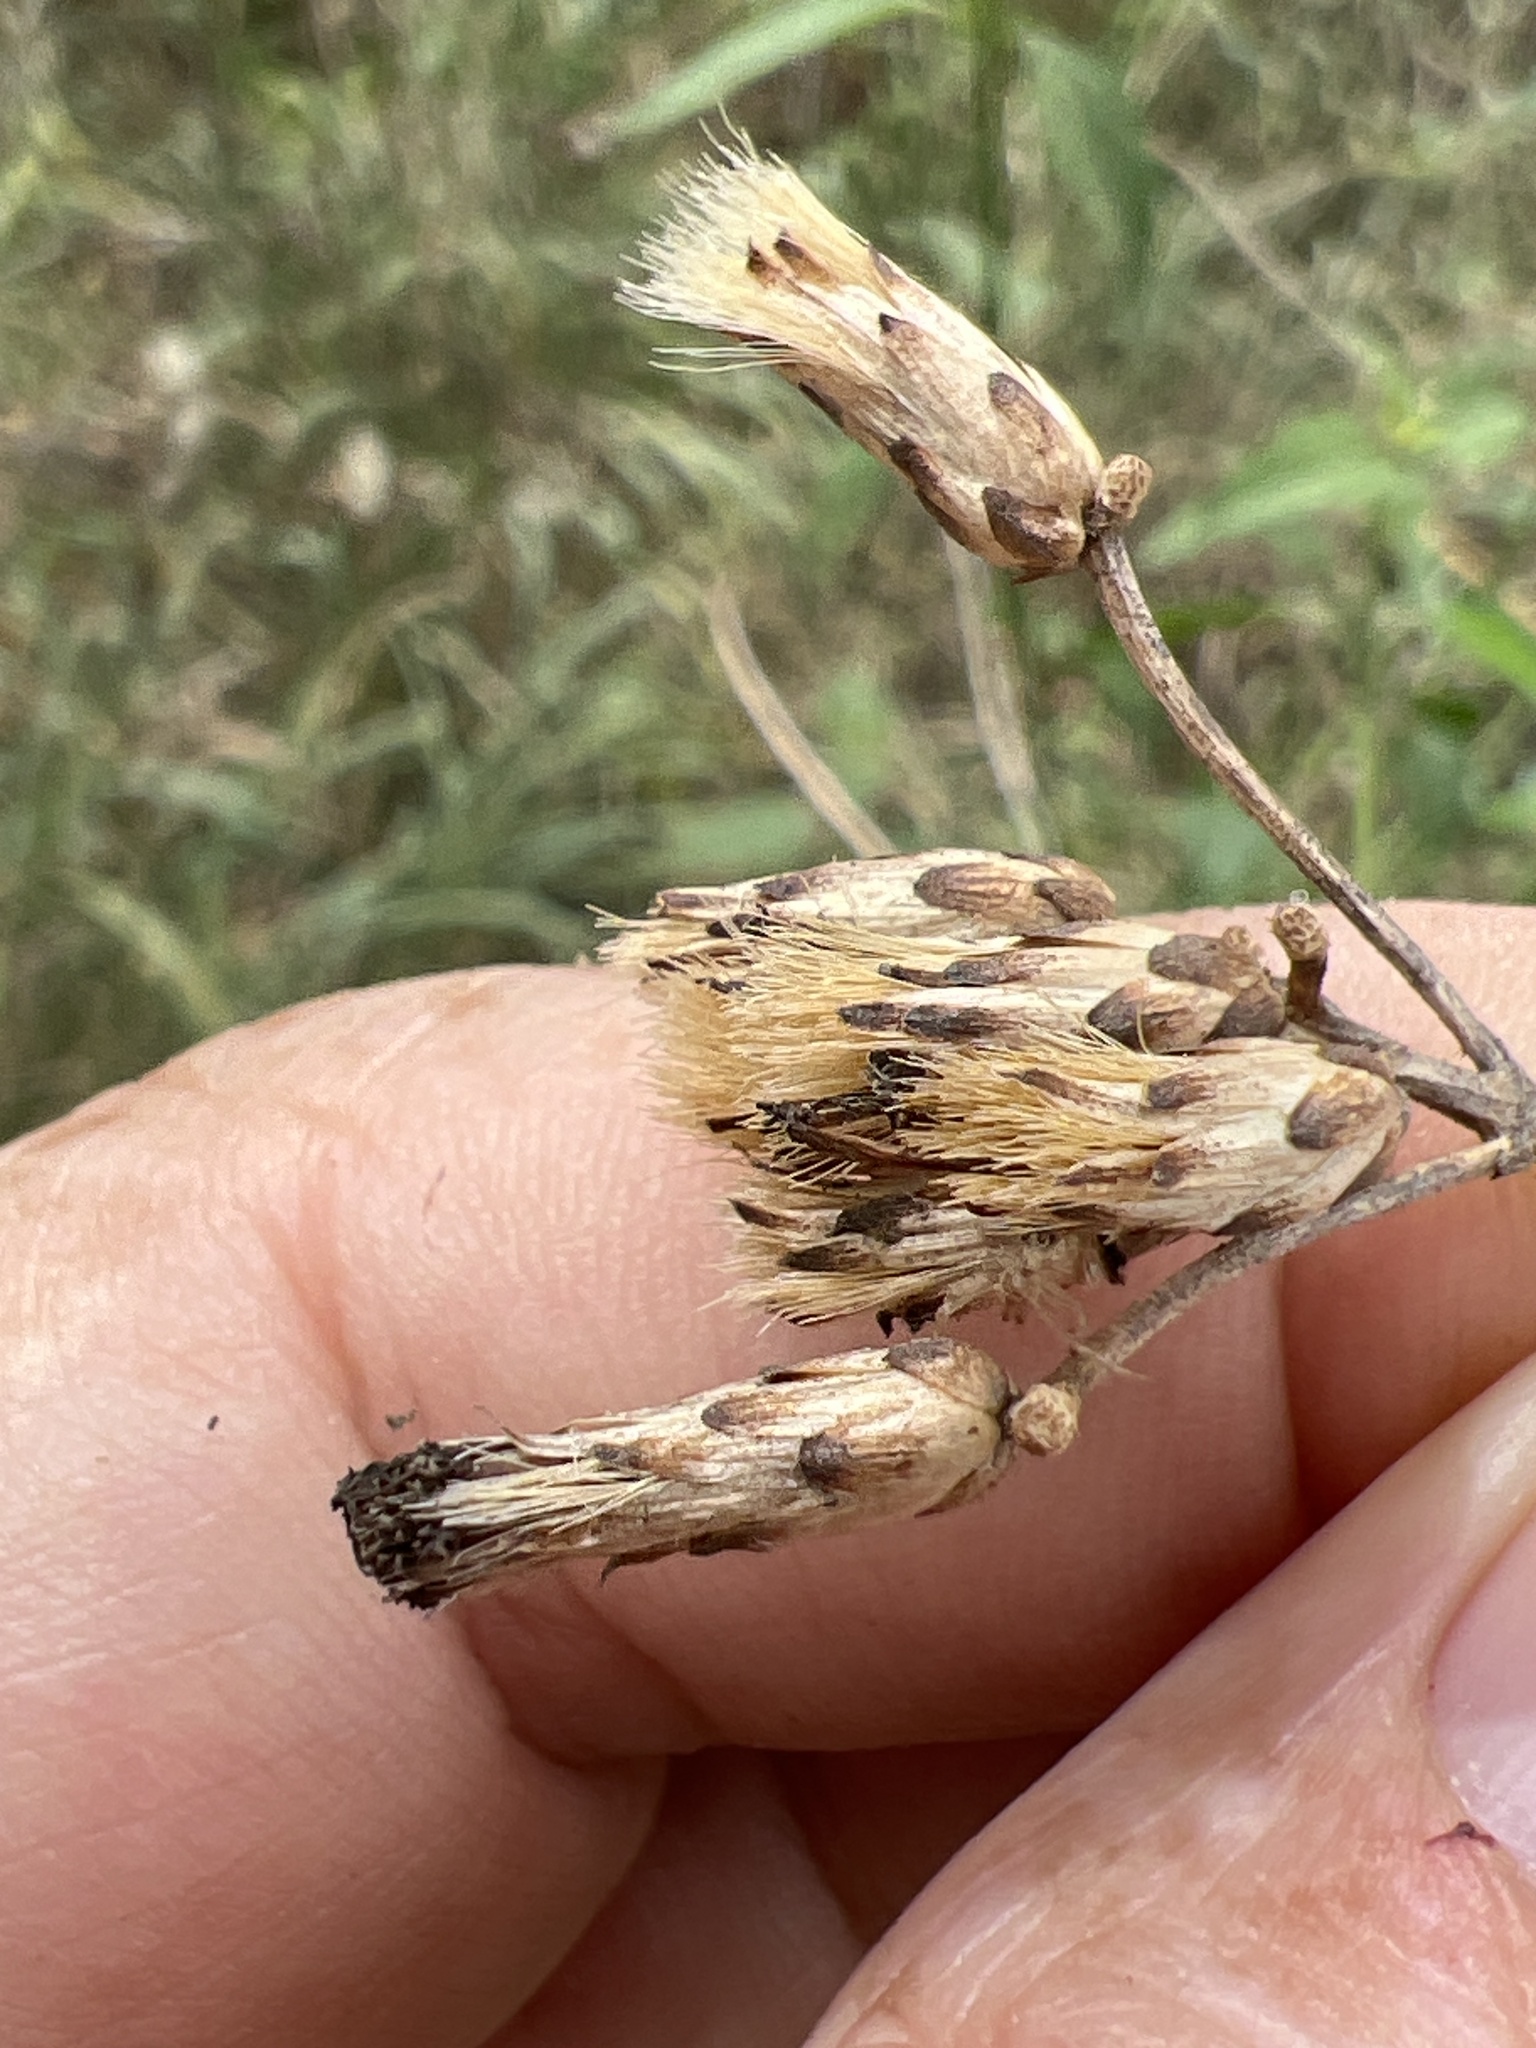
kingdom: Plantae
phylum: Tracheophyta
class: Magnoliopsida
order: Asterales
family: Asteraceae
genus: Chromolaena
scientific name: Chromolaena odorata
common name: Siamweed
